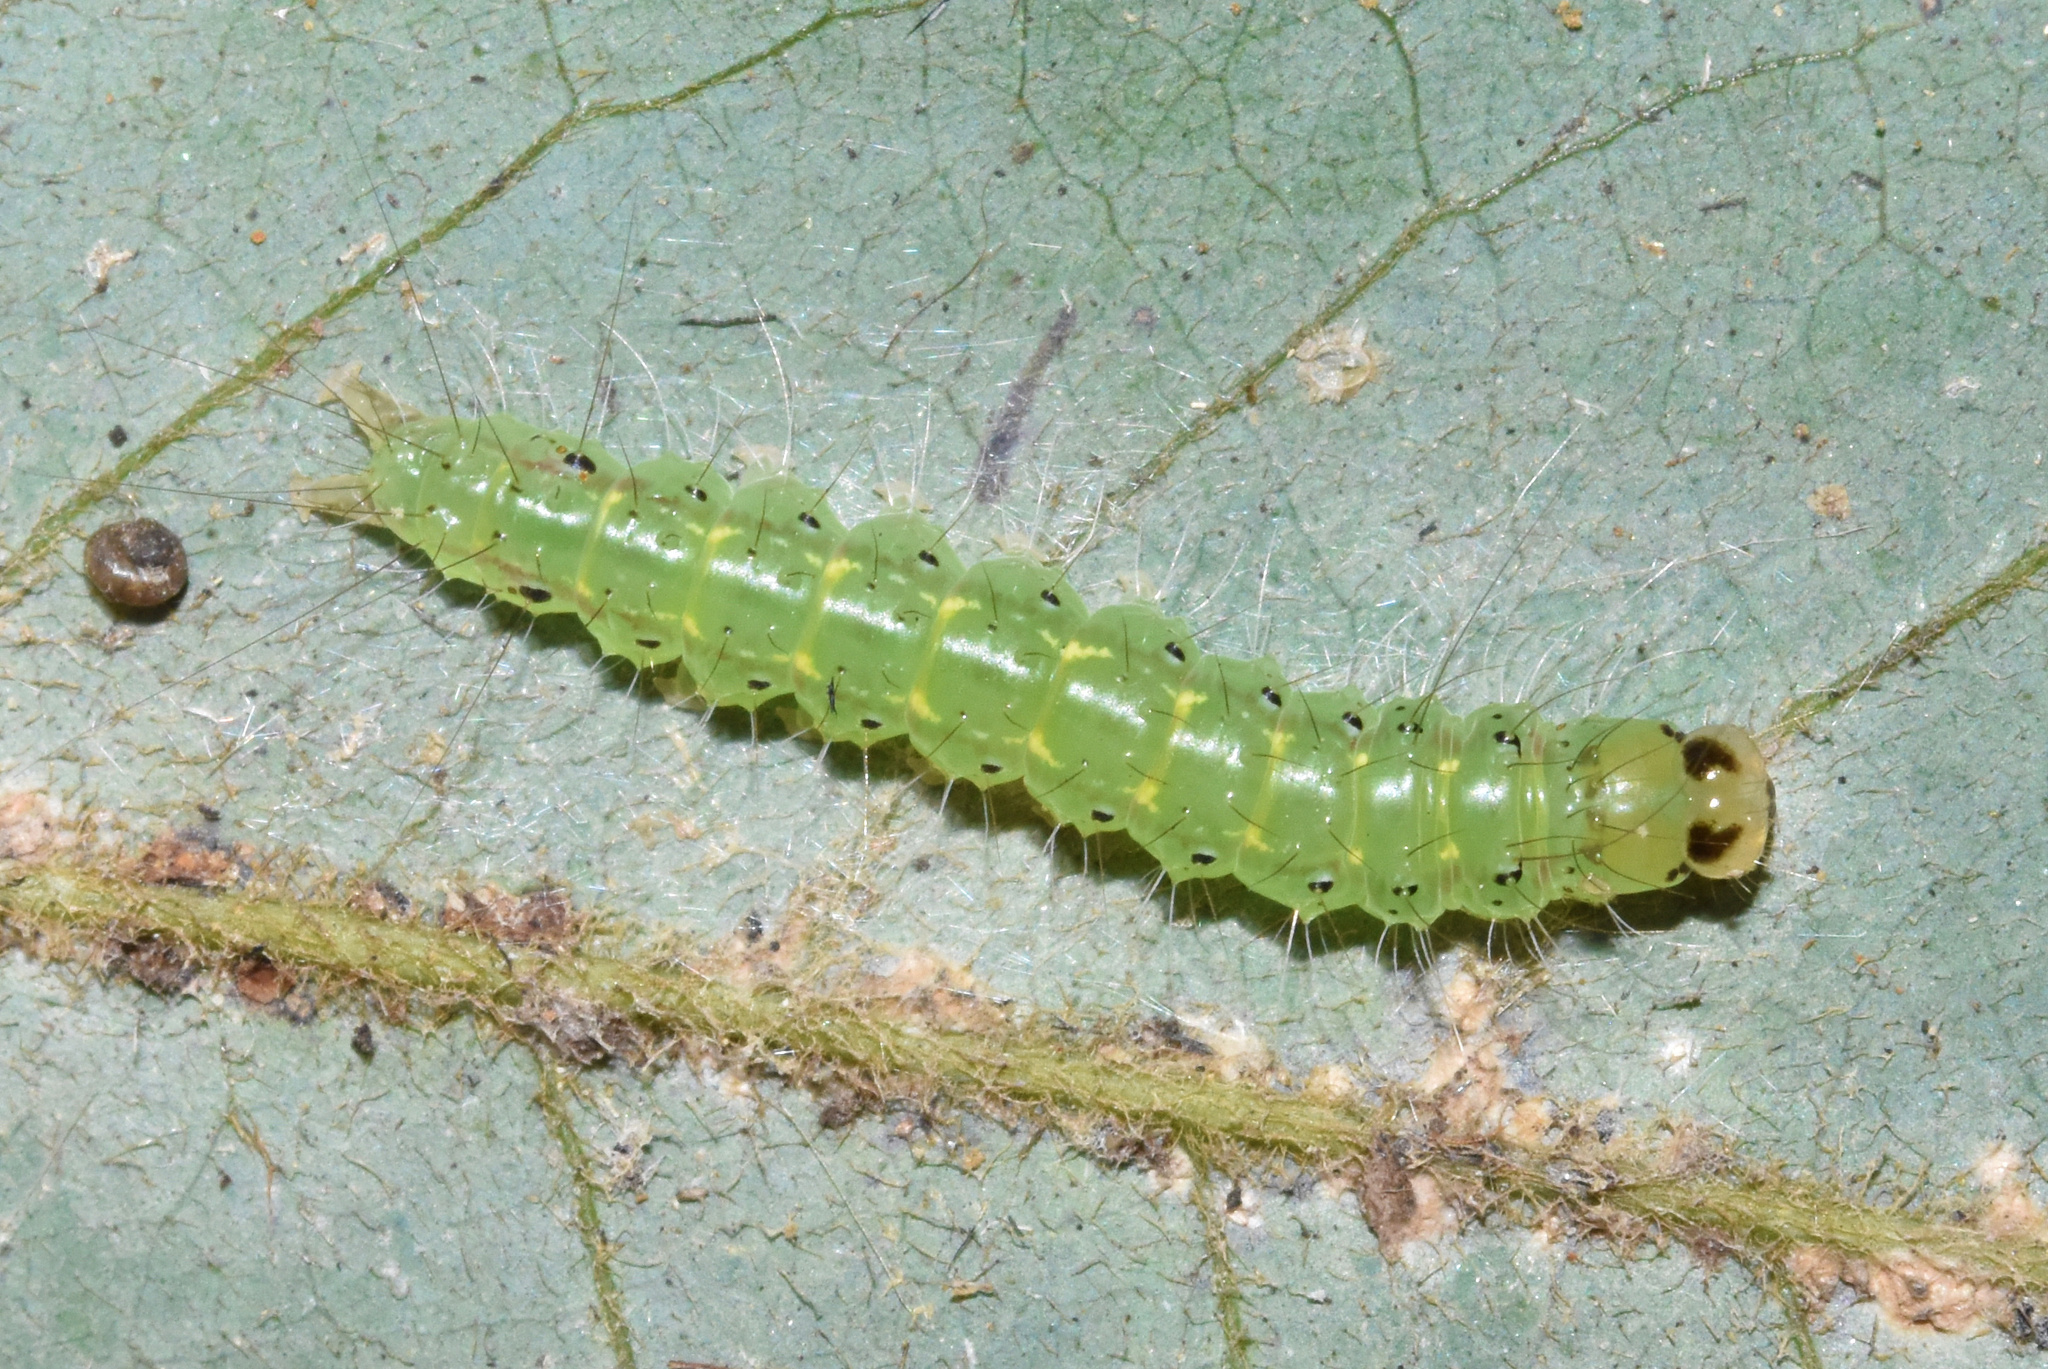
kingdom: Animalia
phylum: Arthropoda
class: Insecta
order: Lepidoptera
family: Erebidae
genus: Amerila
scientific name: Amerila bubo
